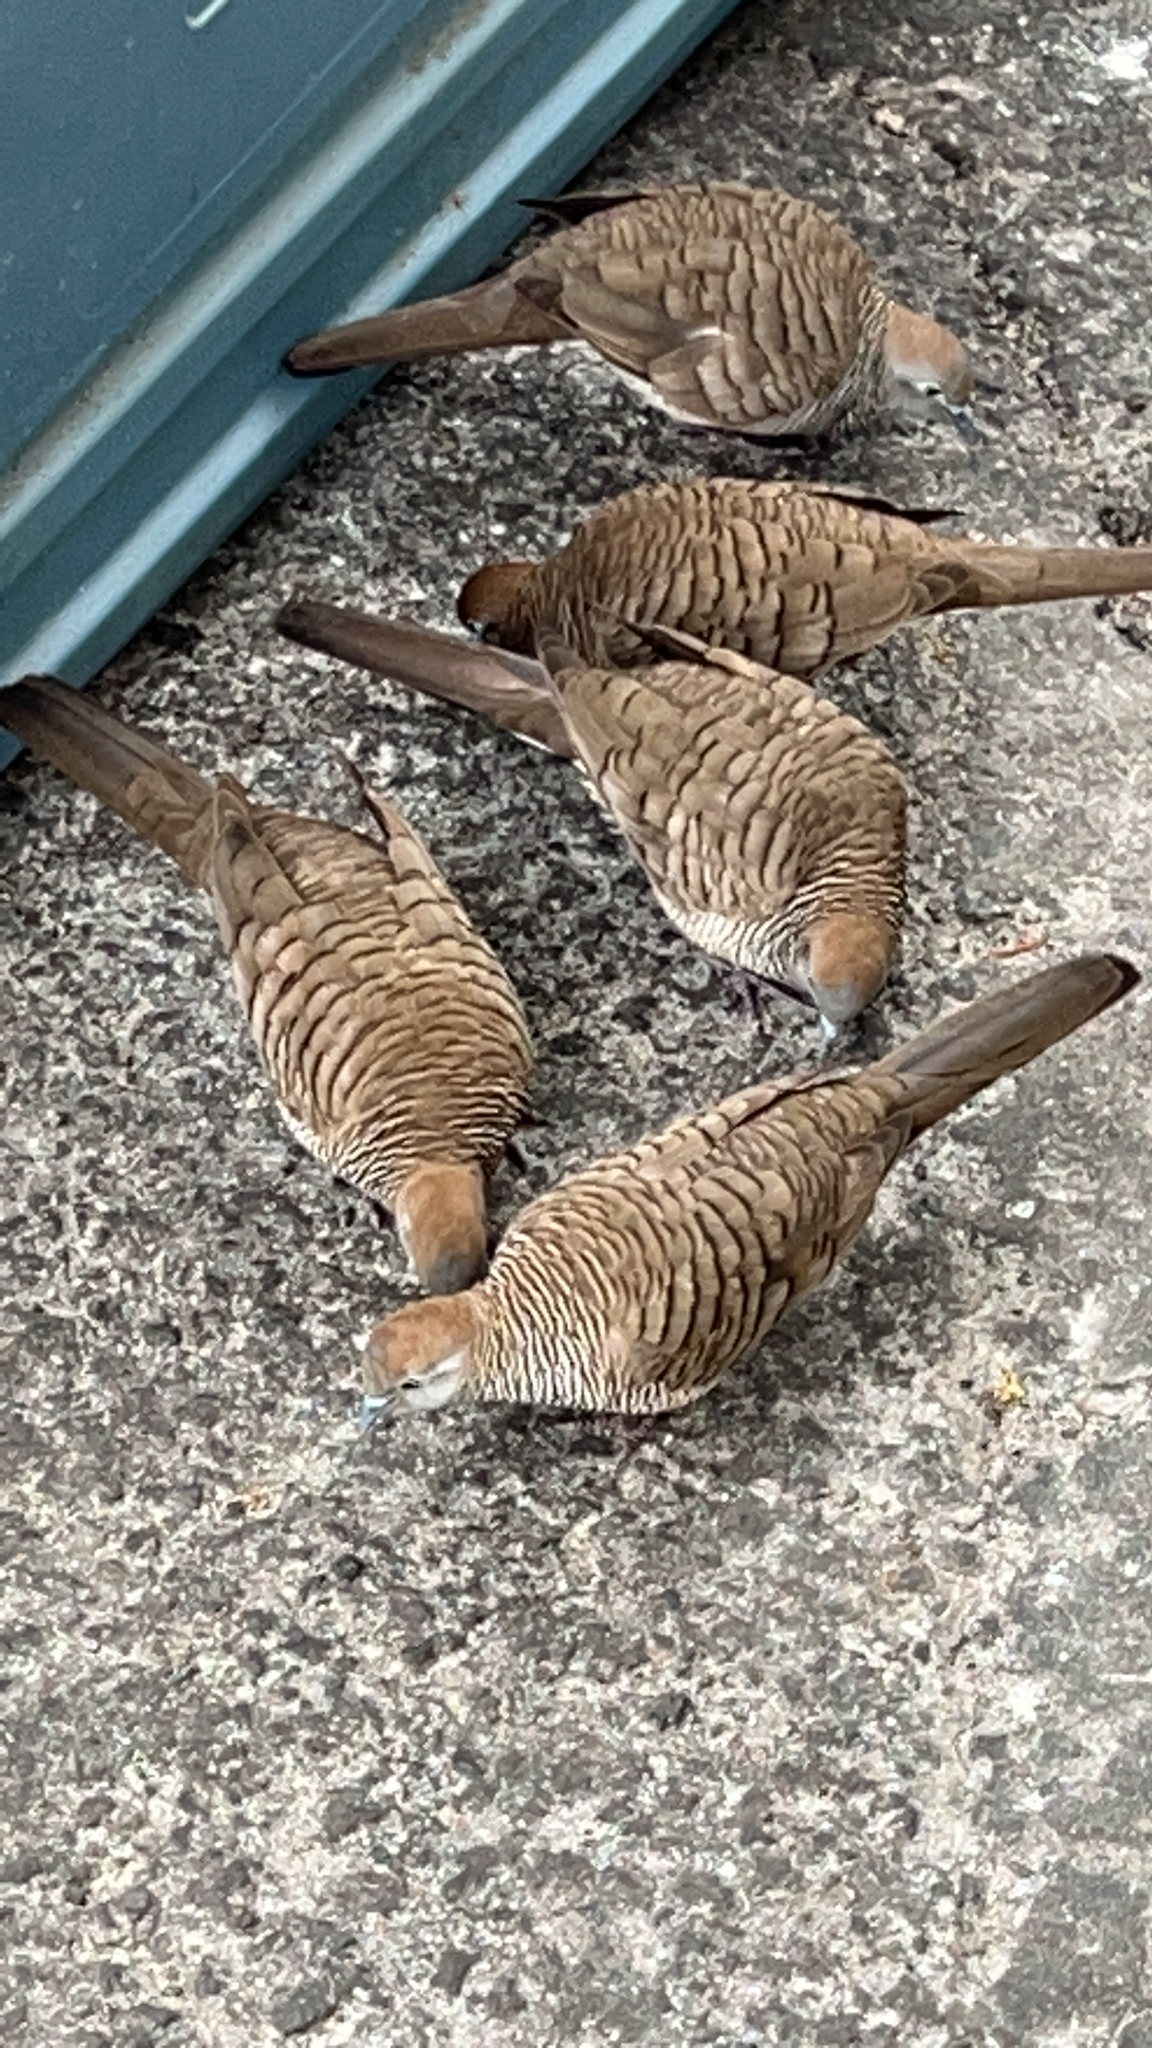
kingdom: Animalia
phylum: Chordata
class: Aves
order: Columbiformes
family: Columbidae
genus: Geopelia
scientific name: Geopelia striata
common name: Zebra dove
